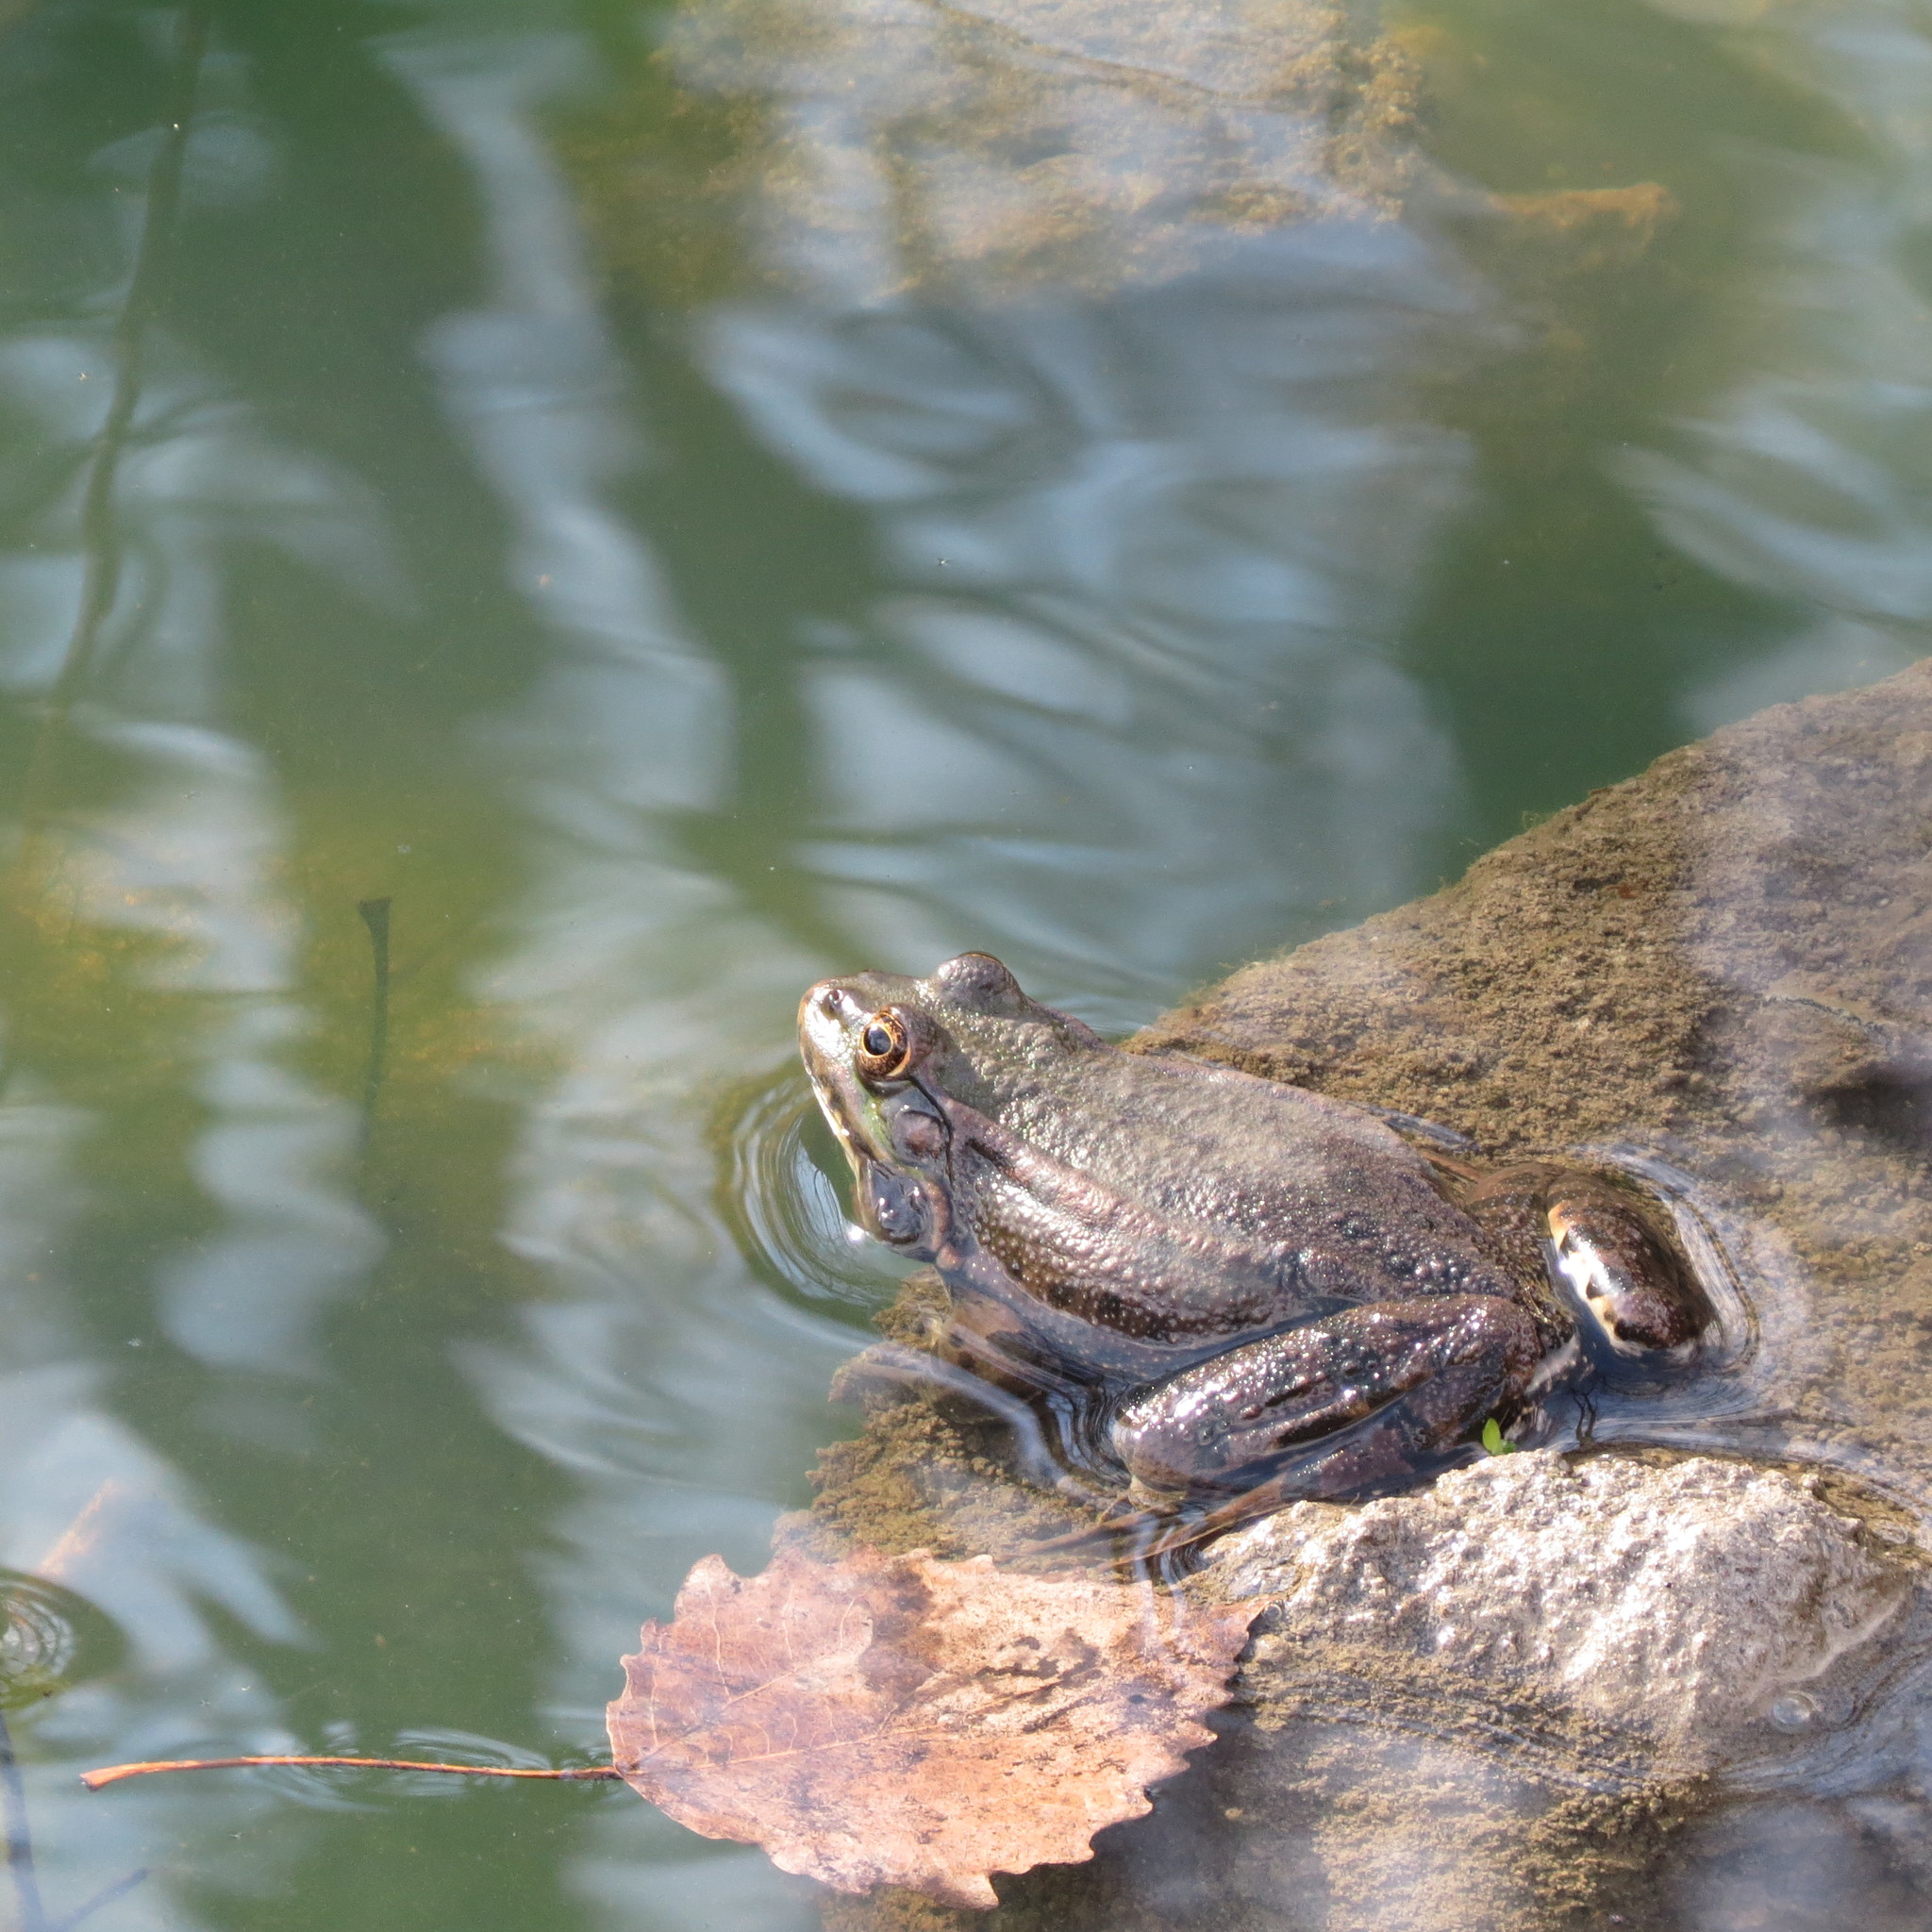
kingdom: Animalia
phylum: Chordata
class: Amphibia
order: Anura
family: Ranidae
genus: Pelophylax
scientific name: Pelophylax ridibundus
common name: Marsh frog
